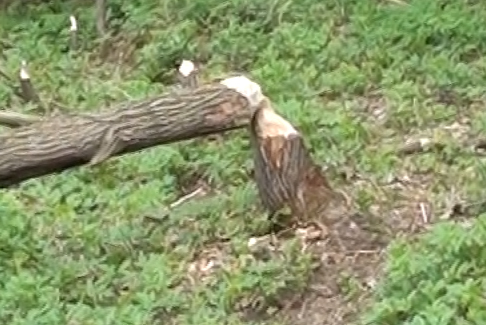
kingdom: Animalia
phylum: Chordata
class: Mammalia
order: Rodentia
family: Castoridae
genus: Castor
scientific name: Castor fiber
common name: Eurasian beaver
